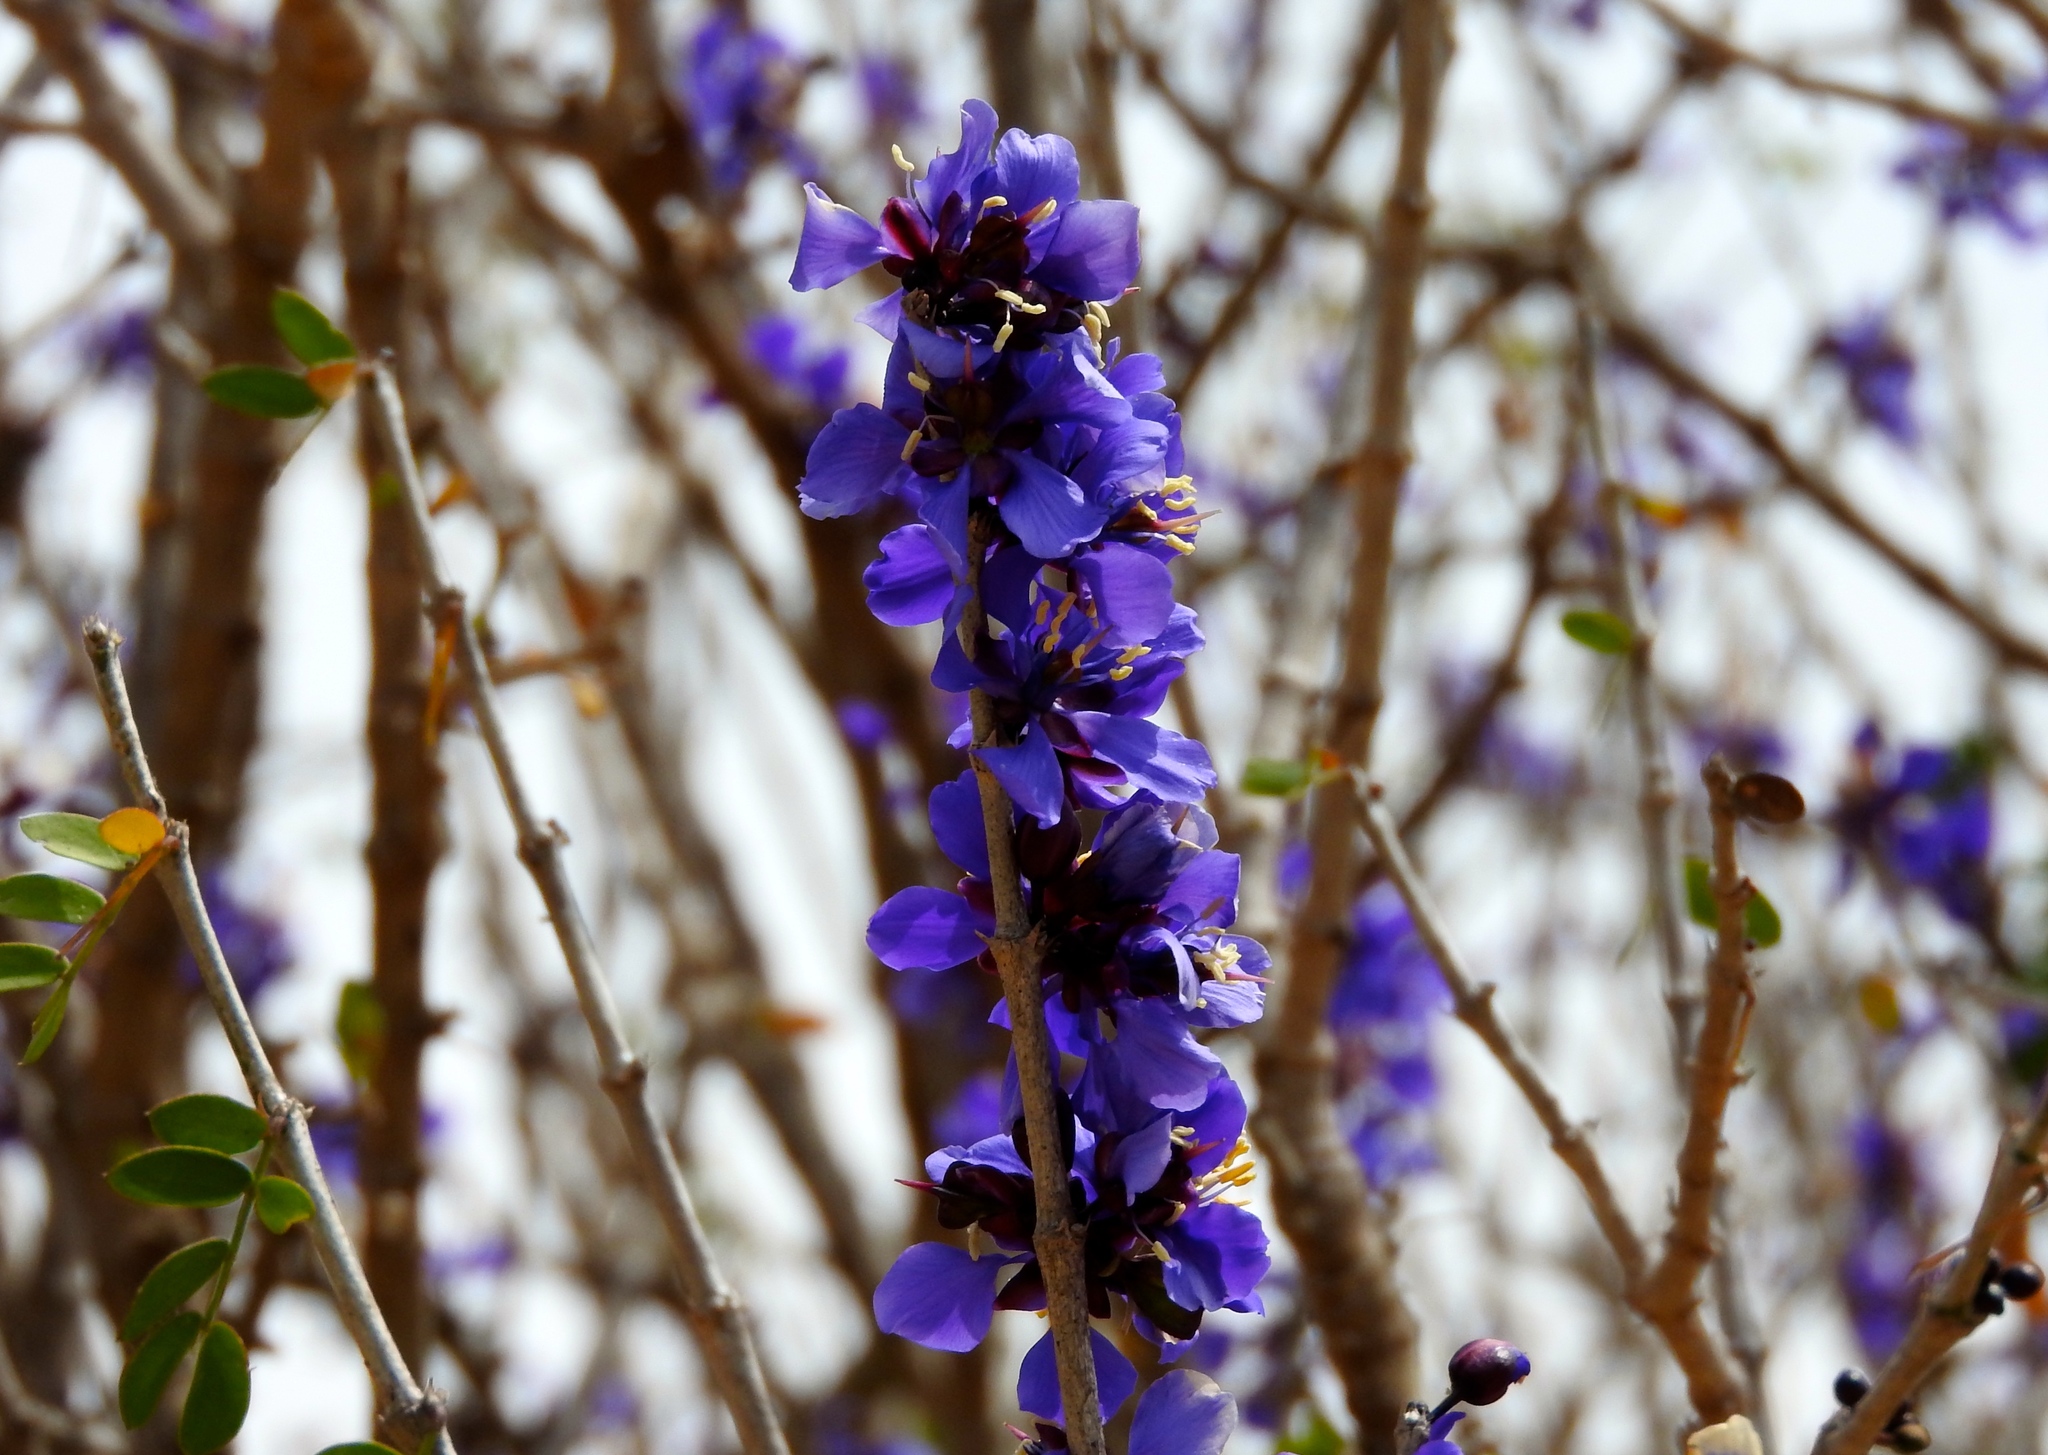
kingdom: Plantae
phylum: Tracheophyta
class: Magnoliopsida
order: Zygophyllales
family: Zygophyllaceae
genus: Guaiacum
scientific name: Guaiacum coulteri
